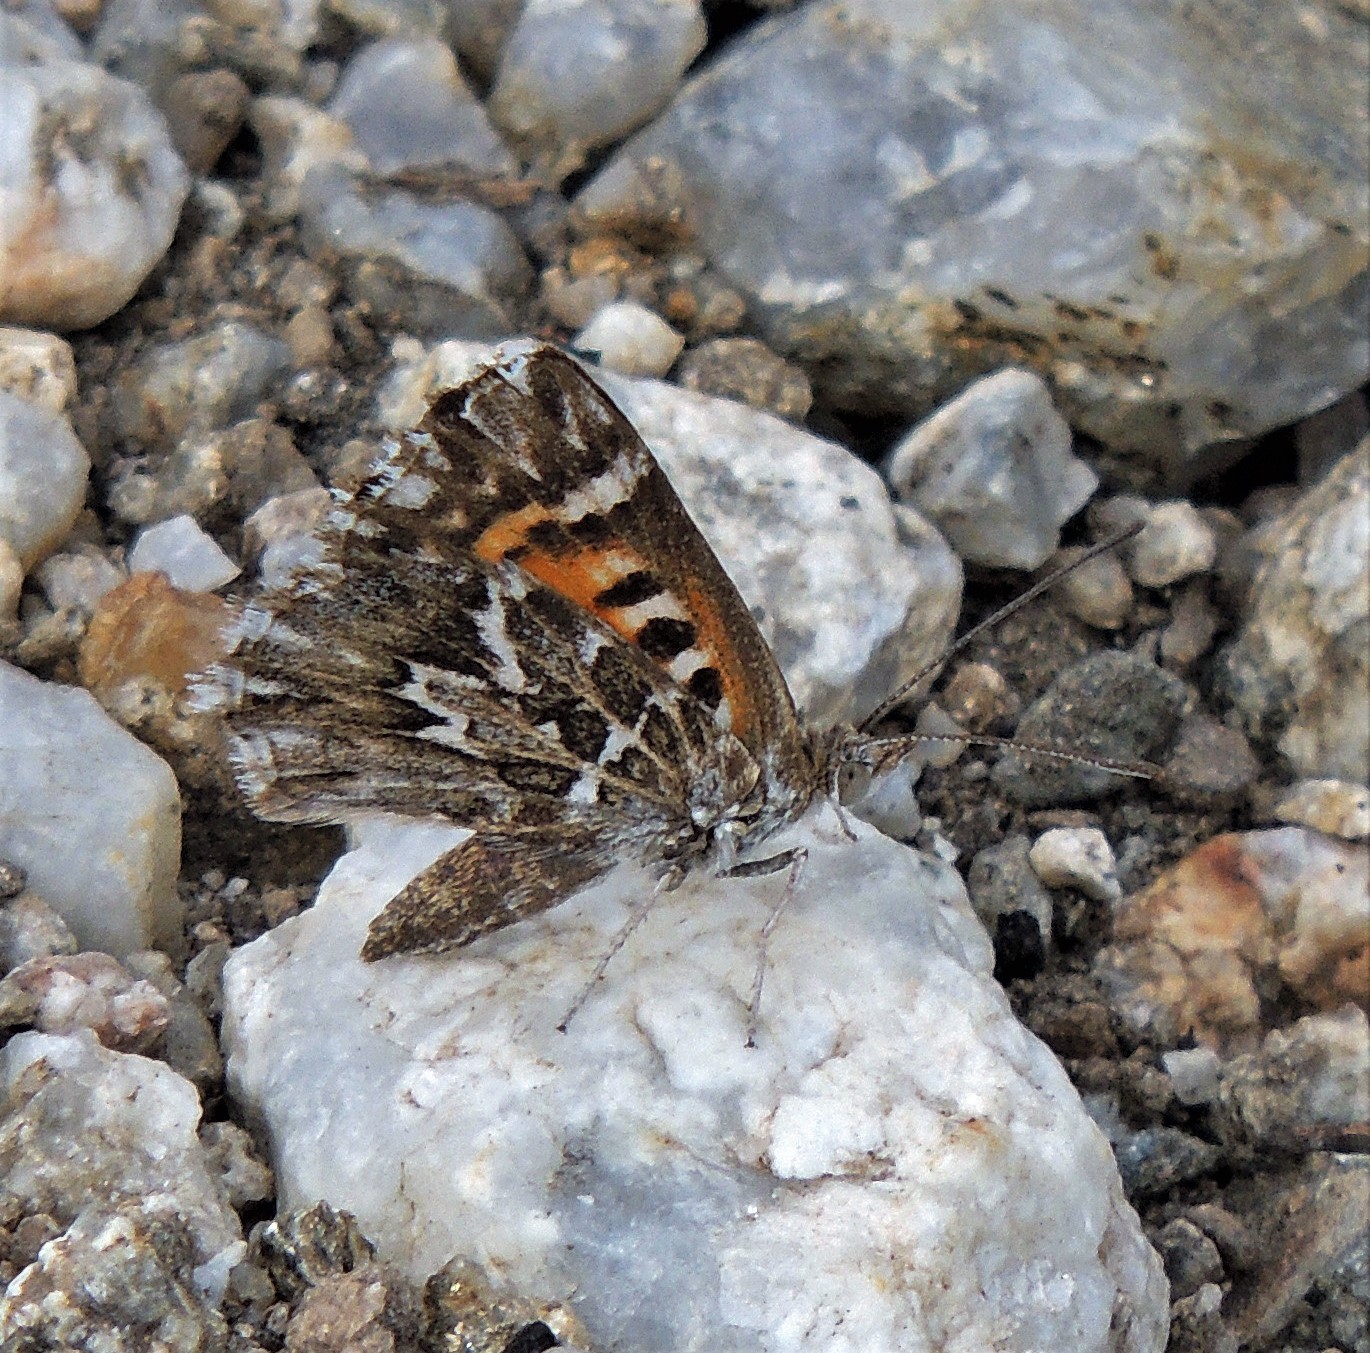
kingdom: Animalia
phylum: Arthropoda
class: Insecta
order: Lepidoptera
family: Lycaenidae
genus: Aricoris
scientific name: Aricoris notialis
